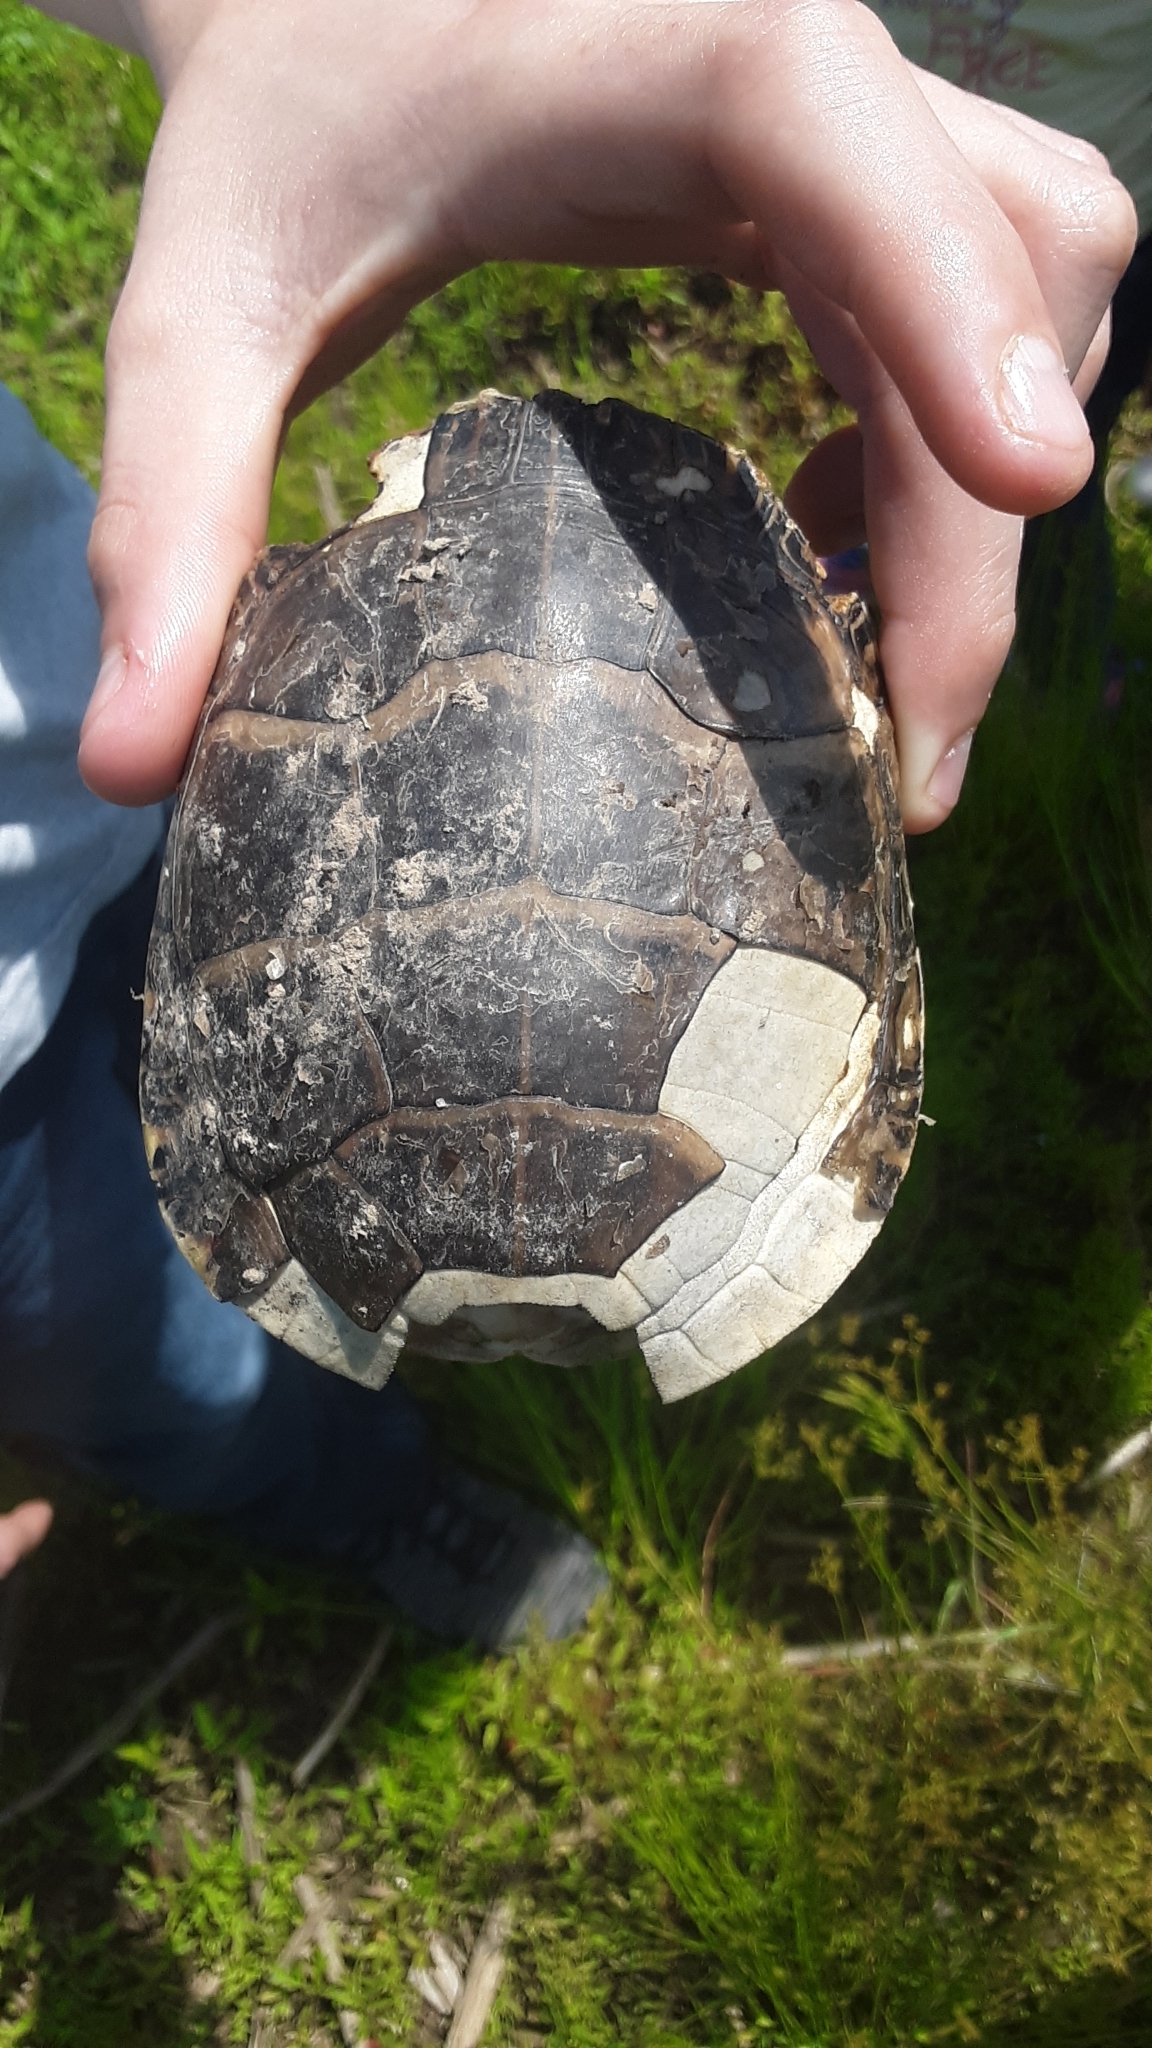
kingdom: Animalia
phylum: Chordata
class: Testudines
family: Emydidae
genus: Chrysemys
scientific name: Chrysemys picta
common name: Painted turtle
